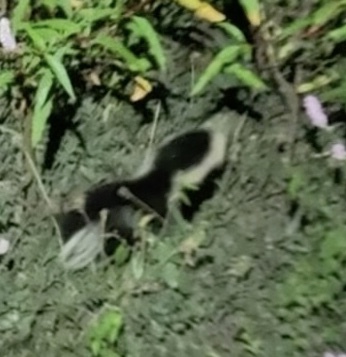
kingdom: Animalia
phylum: Chordata
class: Mammalia
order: Carnivora
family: Mephitidae
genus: Mephitis
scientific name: Mephitis mephitis
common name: Striped skunk
